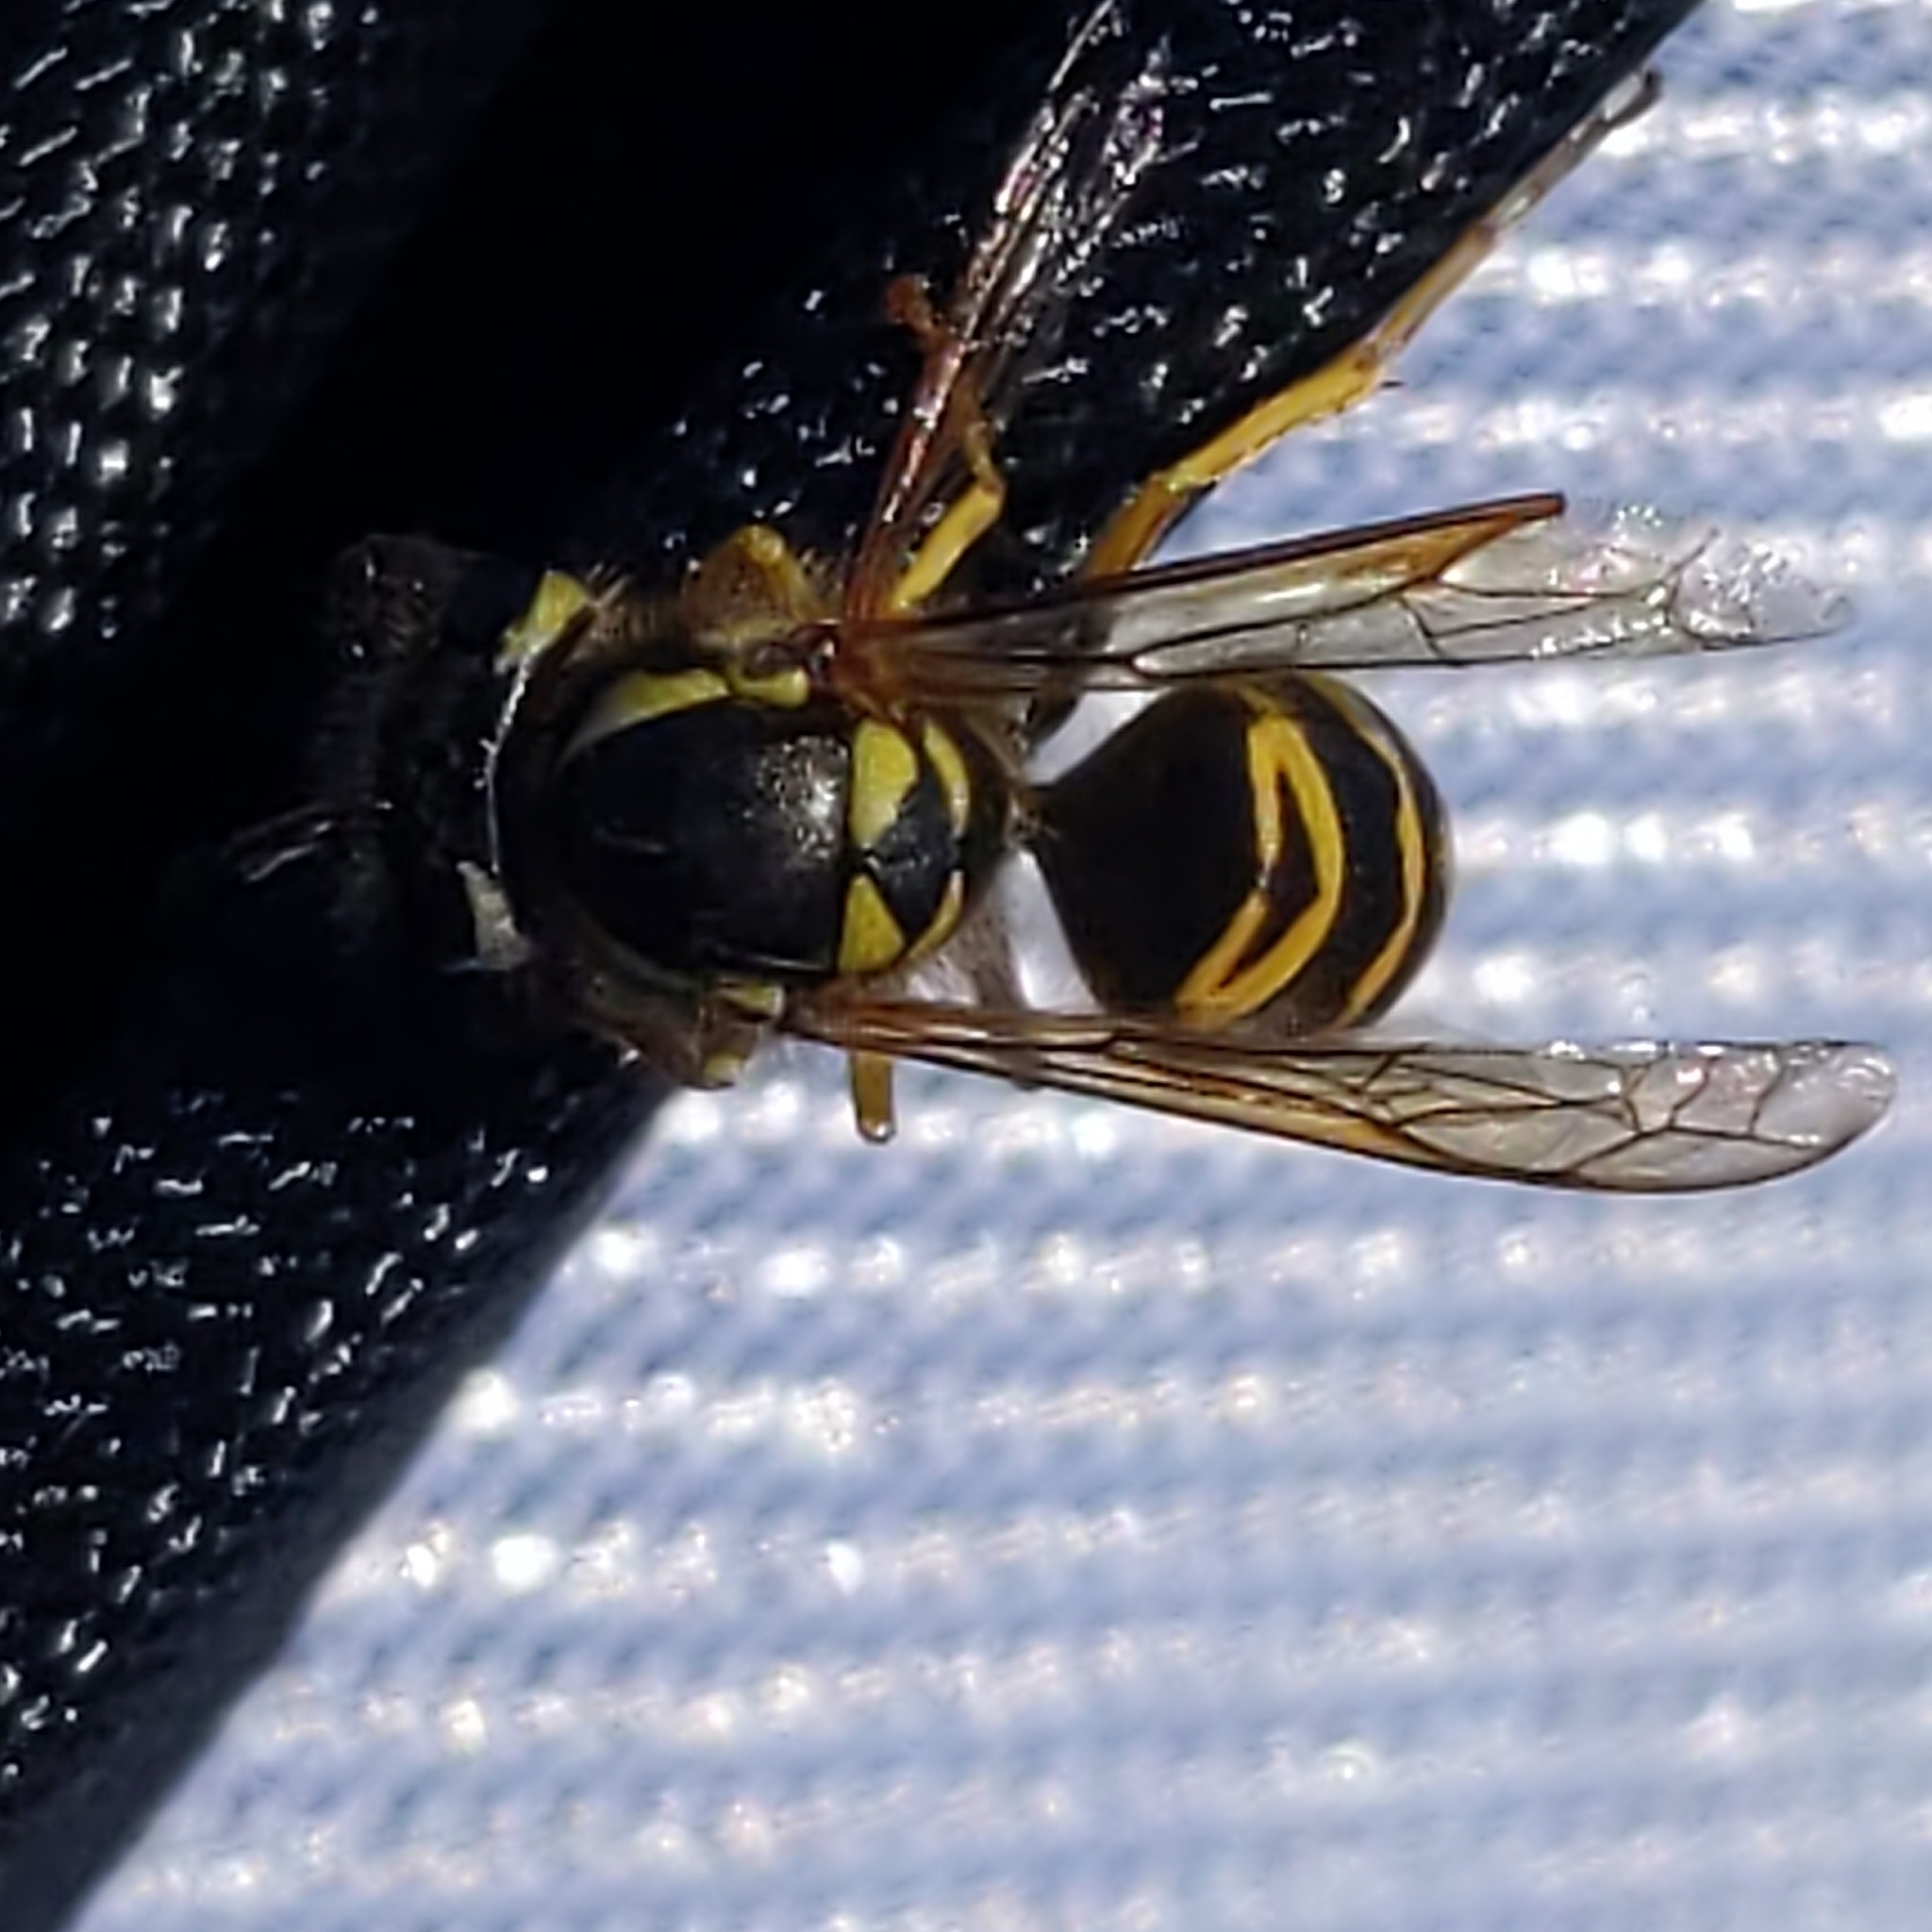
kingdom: Animalia
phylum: Arthropoda
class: Insecta
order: Hymenoptera
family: Vespidae
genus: Vespula
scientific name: Vespula maculifrons
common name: Eastern yellowjacket
